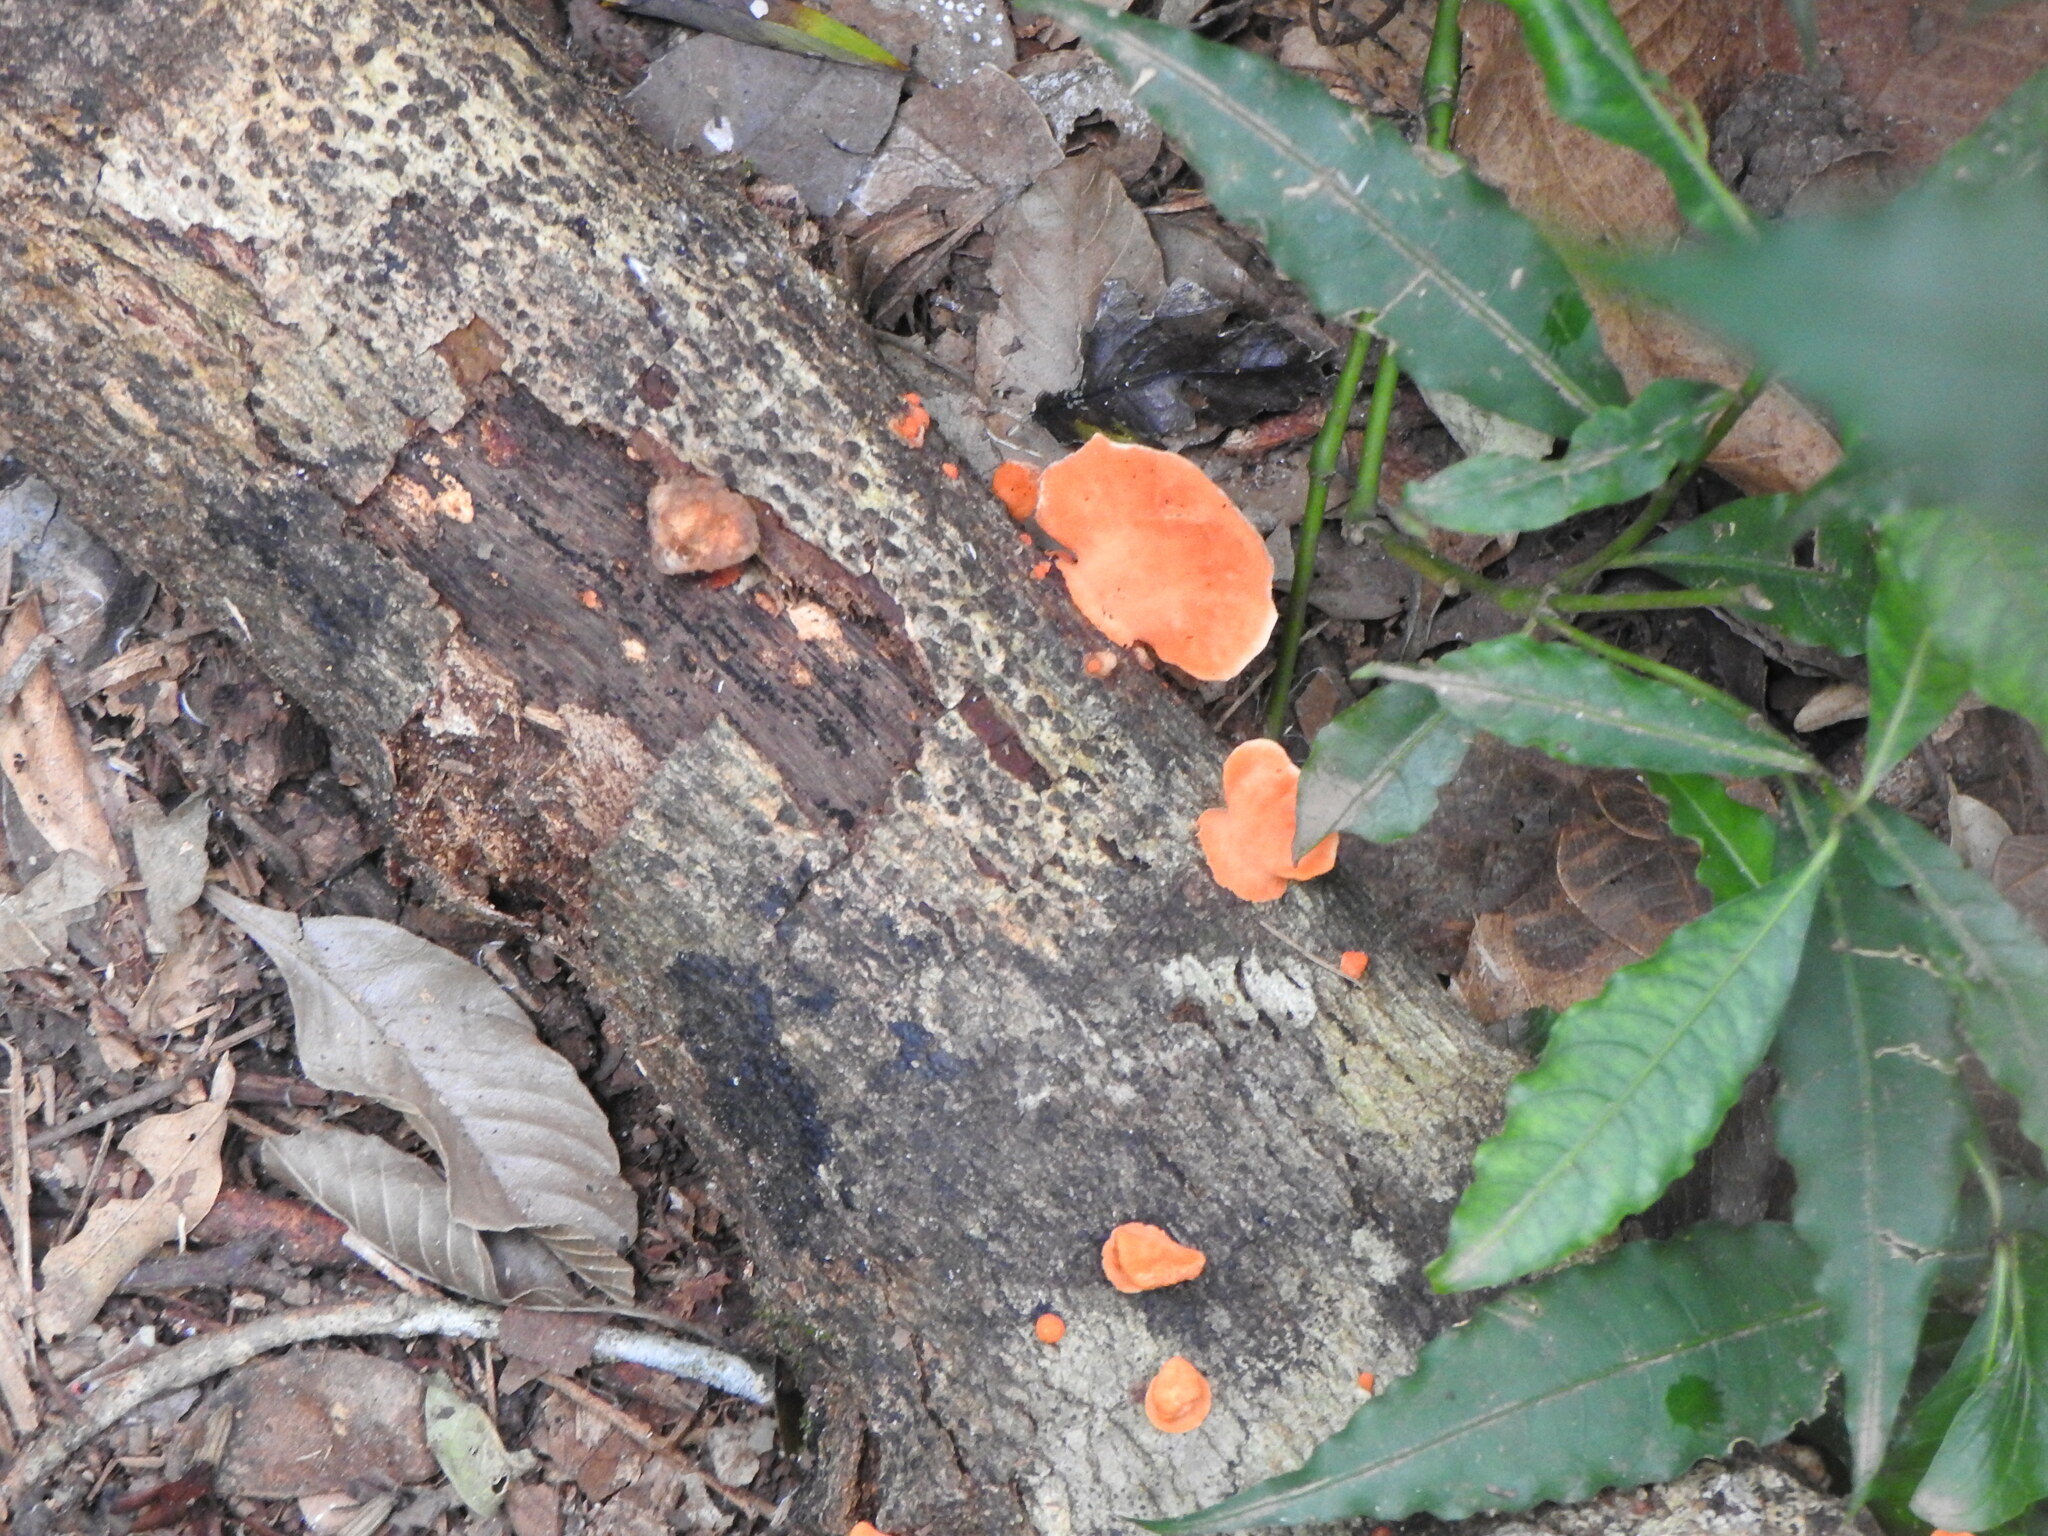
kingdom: Fungi
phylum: Basidiomycota
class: Agaricomycetes
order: Polyporales
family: Polyporaceae
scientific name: Polyporaceae
